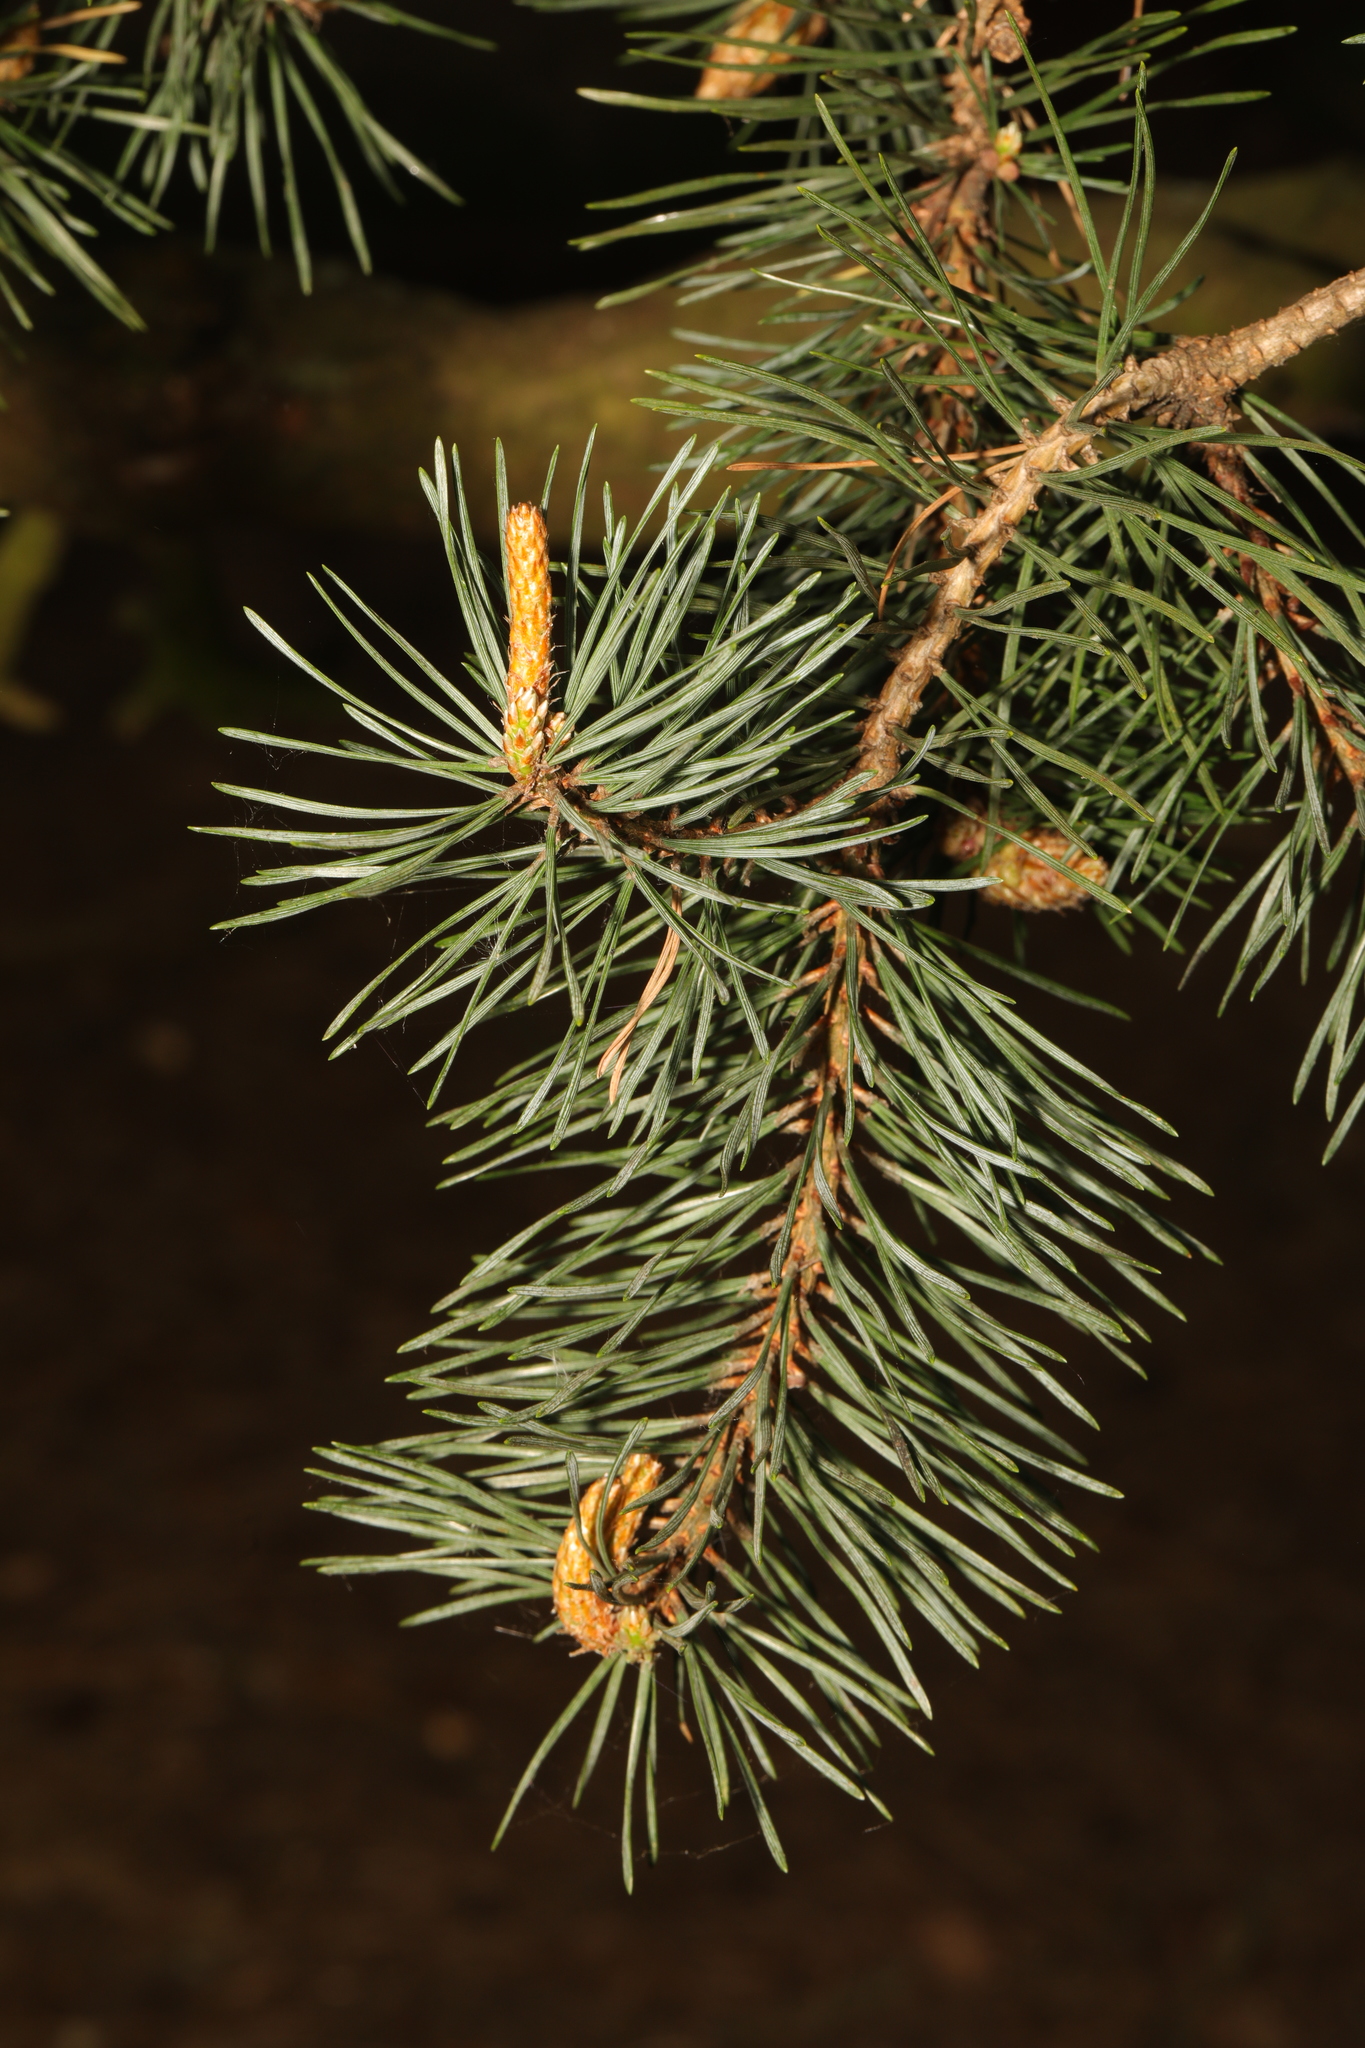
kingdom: Plantae
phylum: Tracheophyta
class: Pinopsida
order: Pinales
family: Pinaceae
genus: Pinus
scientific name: Pinus sylvestris
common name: Scots pine
